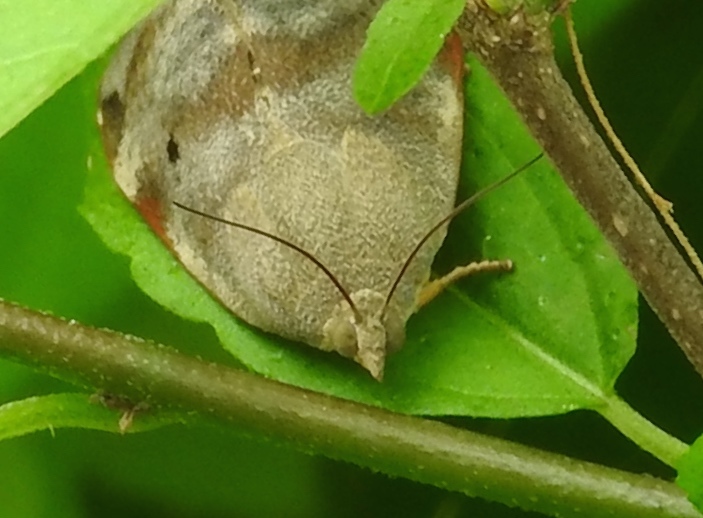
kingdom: Animalia
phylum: Arthropoda
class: Insecta
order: Lepidoptera
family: Hyblaeidae
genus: Hyblaea
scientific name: Hyblaea
